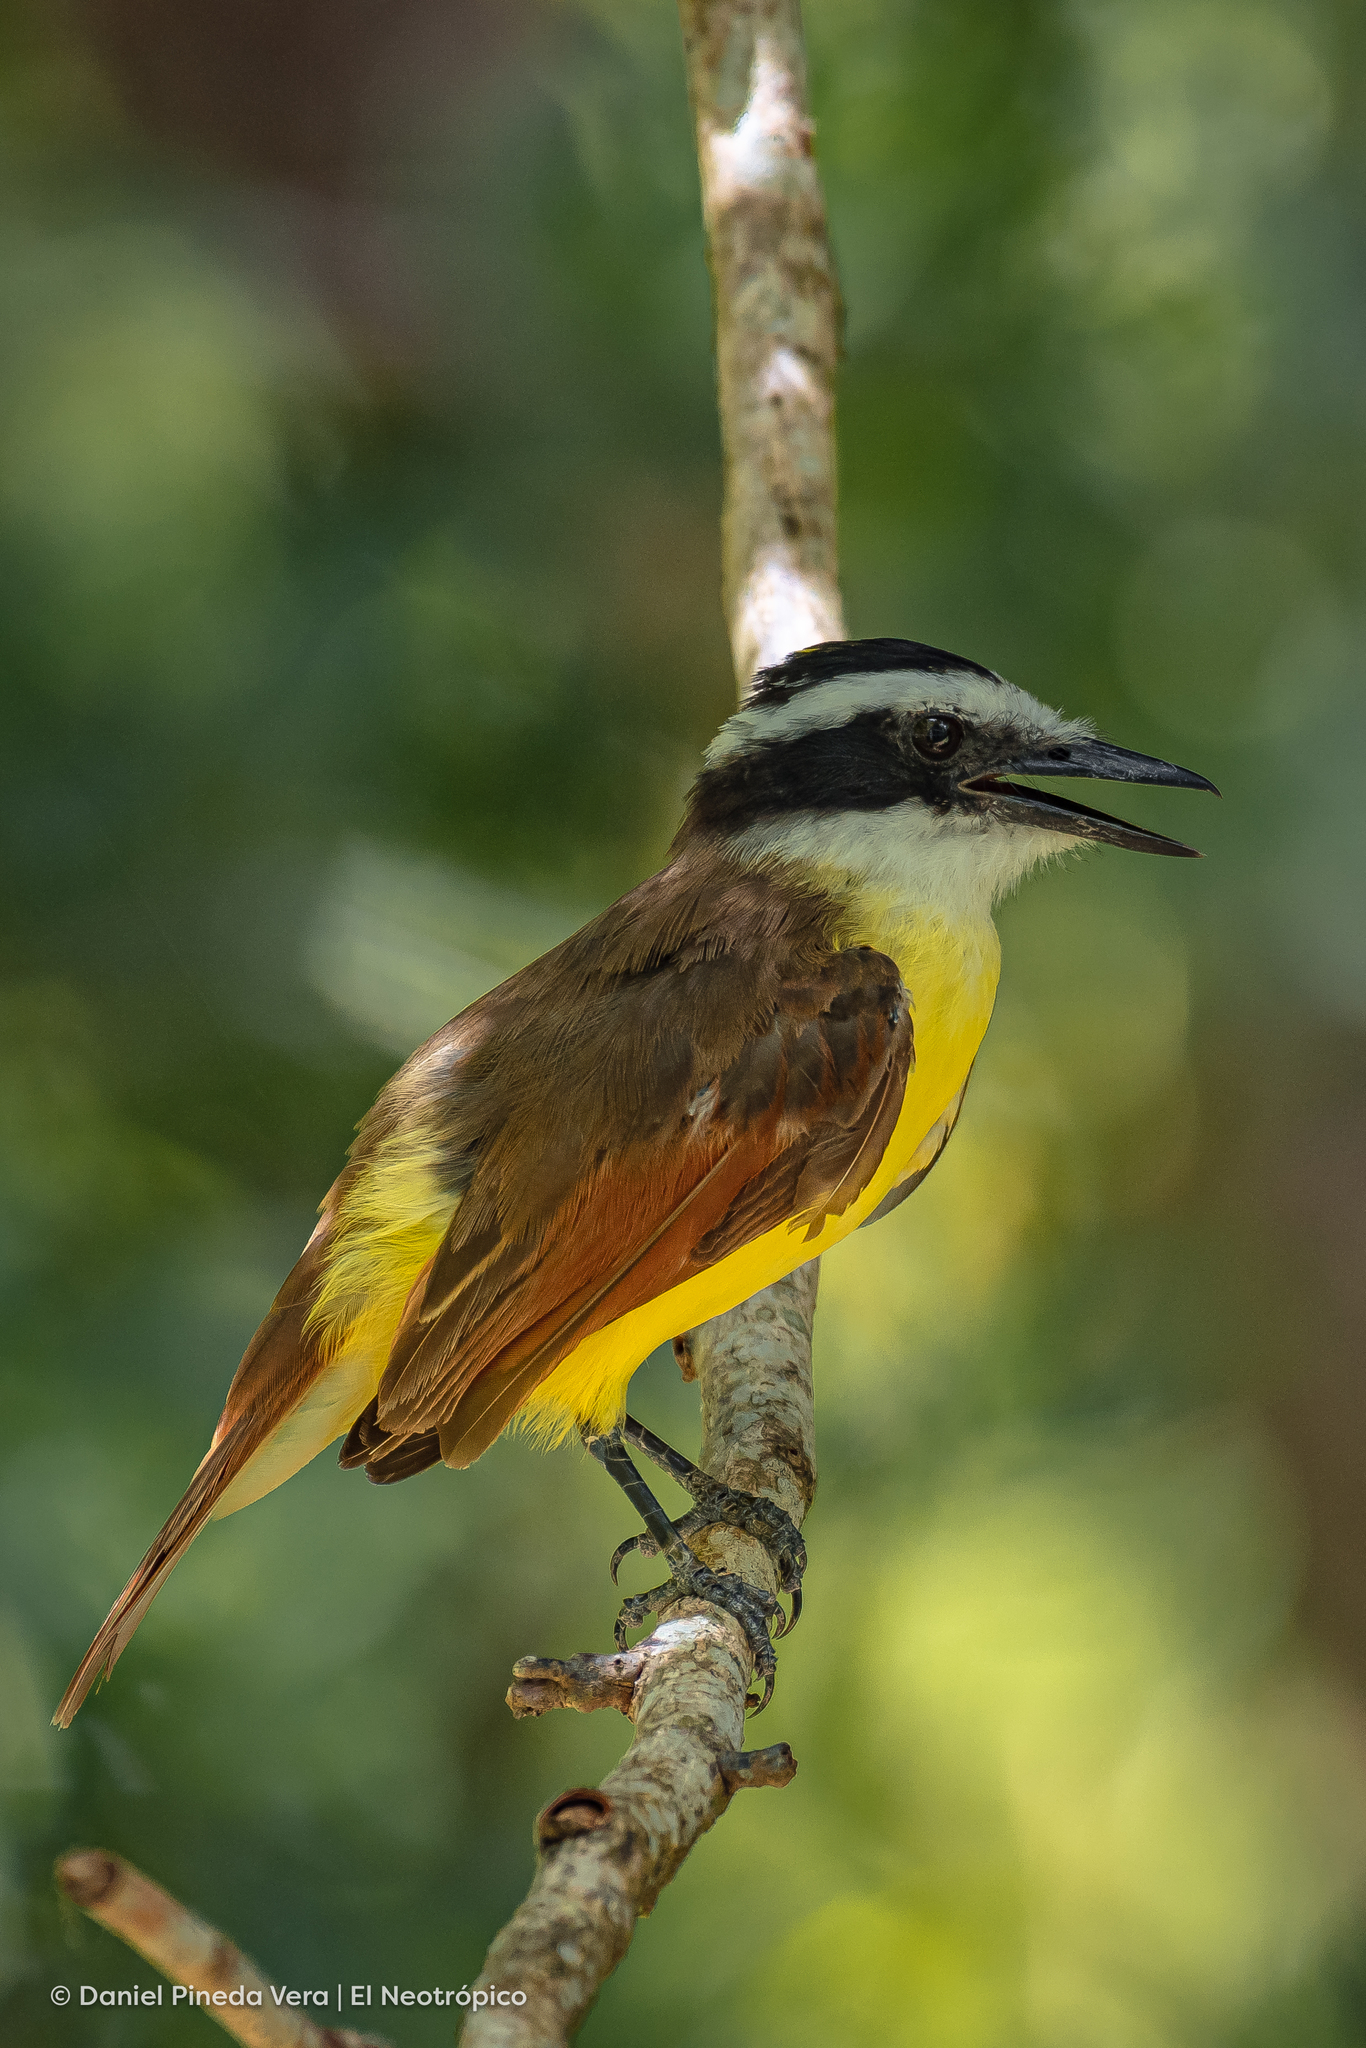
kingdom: Animalia
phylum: Chordata
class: Aves
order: Passeriformes
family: Tyrannidae
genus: Pitangus
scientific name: Pitangus sulphuratus
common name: Great kiskadee
